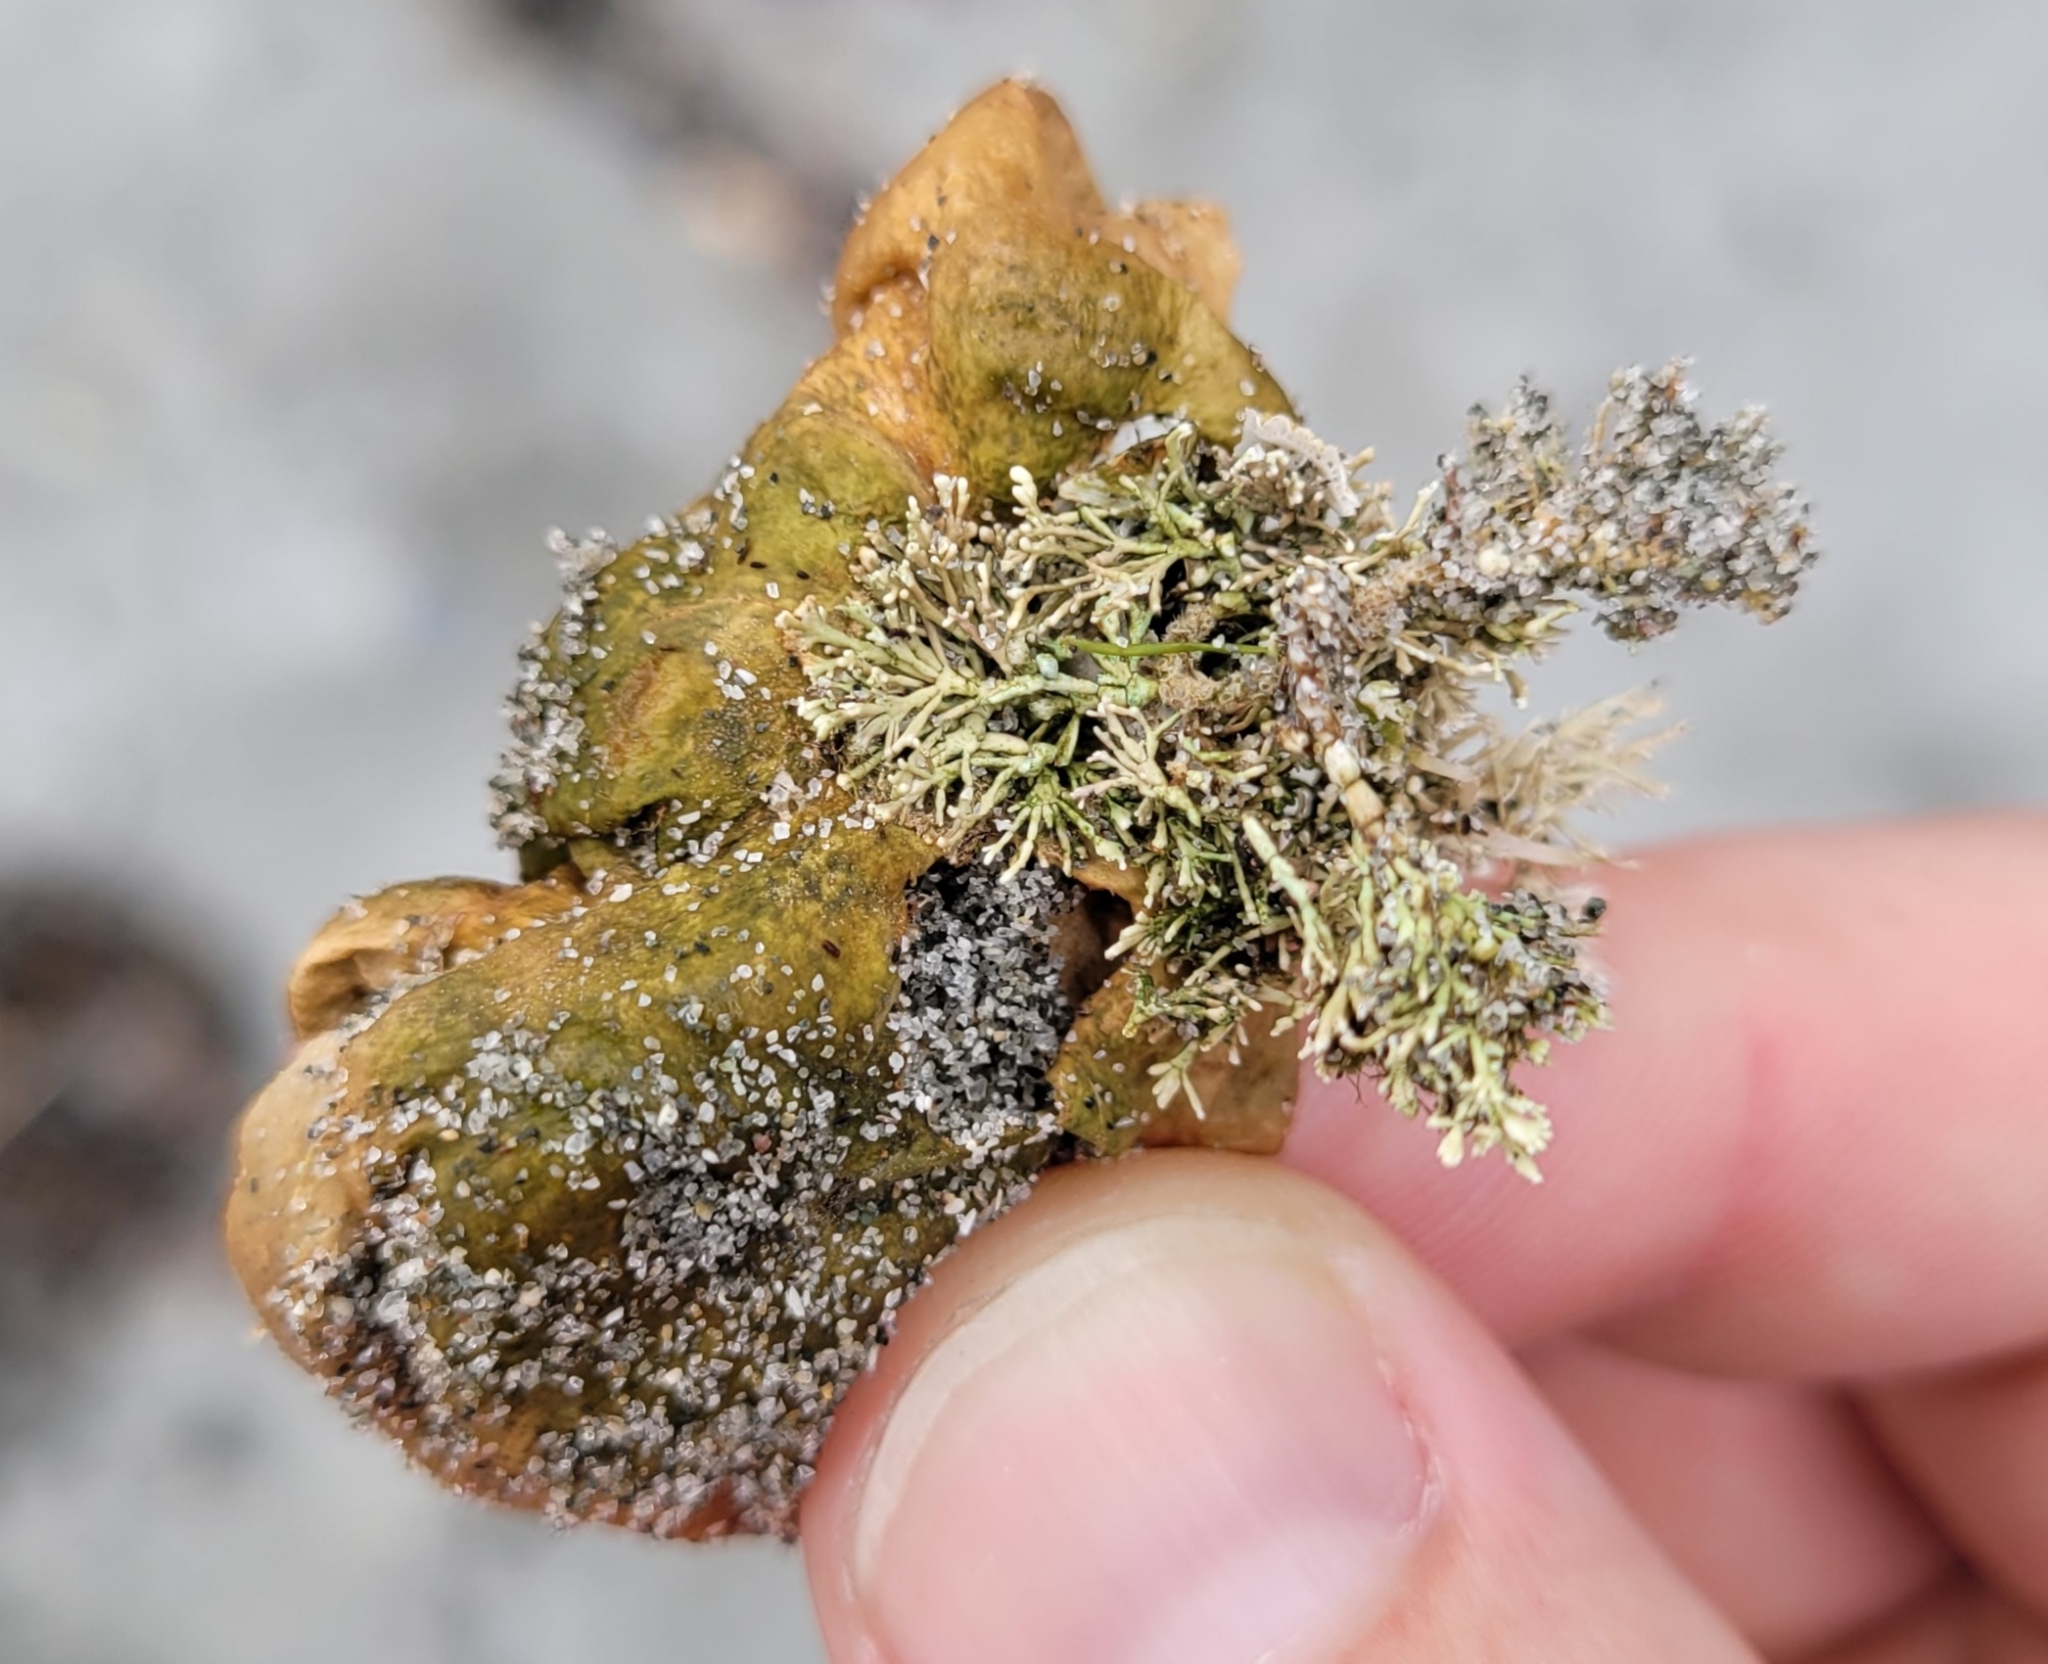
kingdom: Plantae
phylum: Rhodophyta
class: Florideophyceae
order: Corallinales
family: Corallinaceae
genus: Corallina
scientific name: Corallina officinalis
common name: Coral weed
